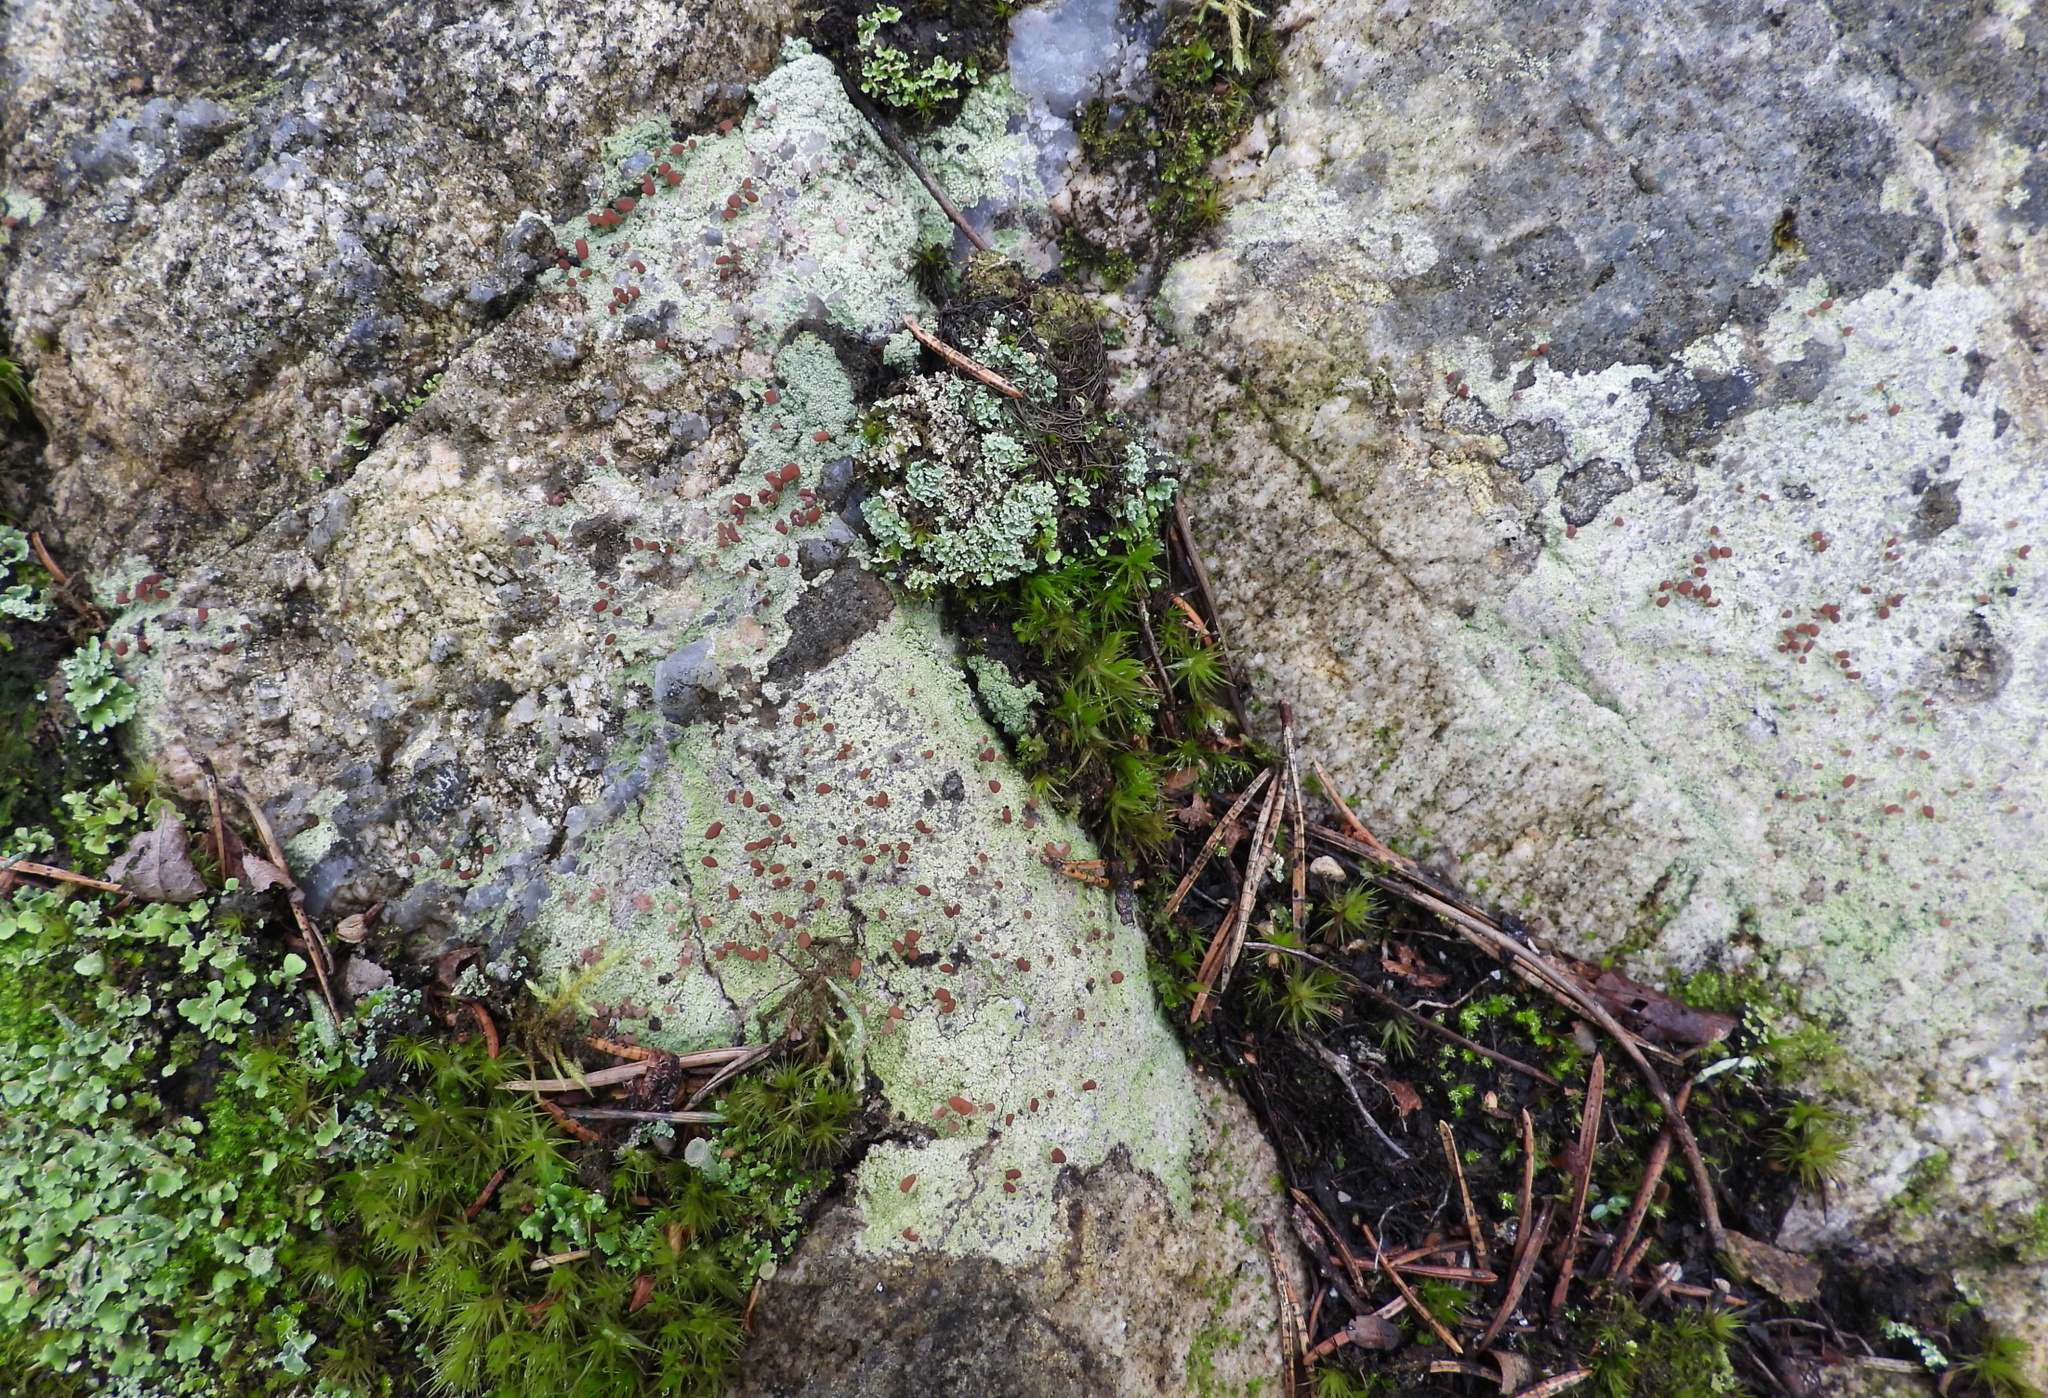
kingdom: Fungi
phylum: Ascomycota
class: Lecanoromycetes
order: Baeomycetales
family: Baeomycetaceae
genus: Baeomyces
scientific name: Baeomyces rufus
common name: Brown beret lichen
